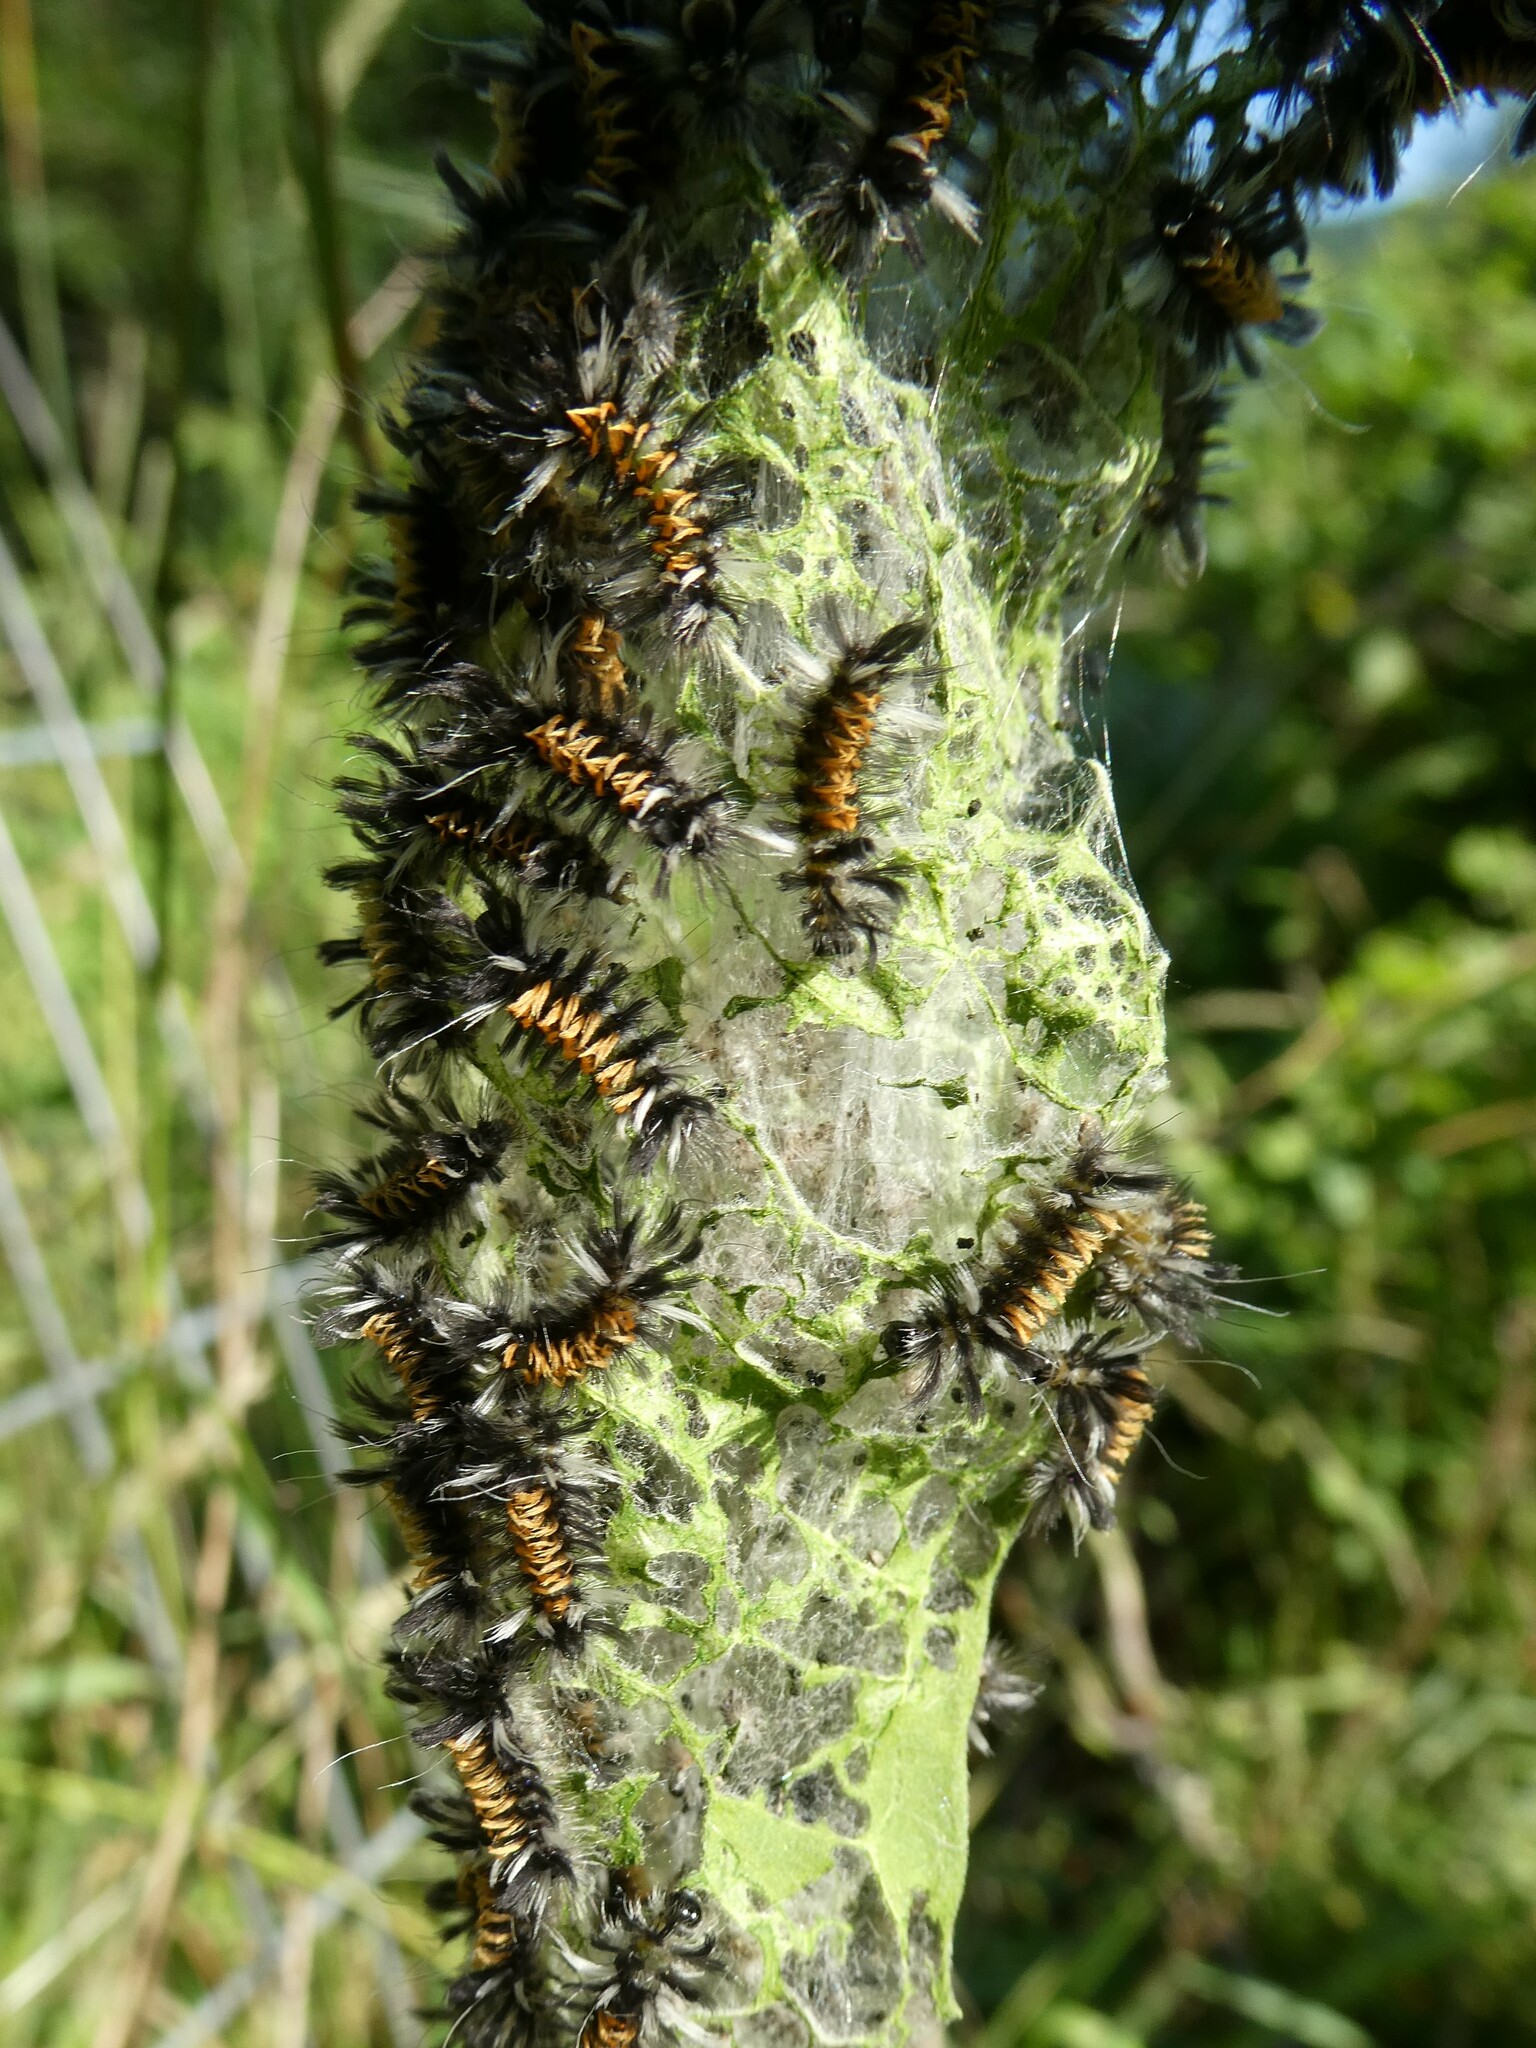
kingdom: Animalia
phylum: Arthropoda
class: Insecta
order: Lepidoptera
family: Erebidae
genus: Euchaetes
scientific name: Euchaetes egle
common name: Milkweed tussock moth
